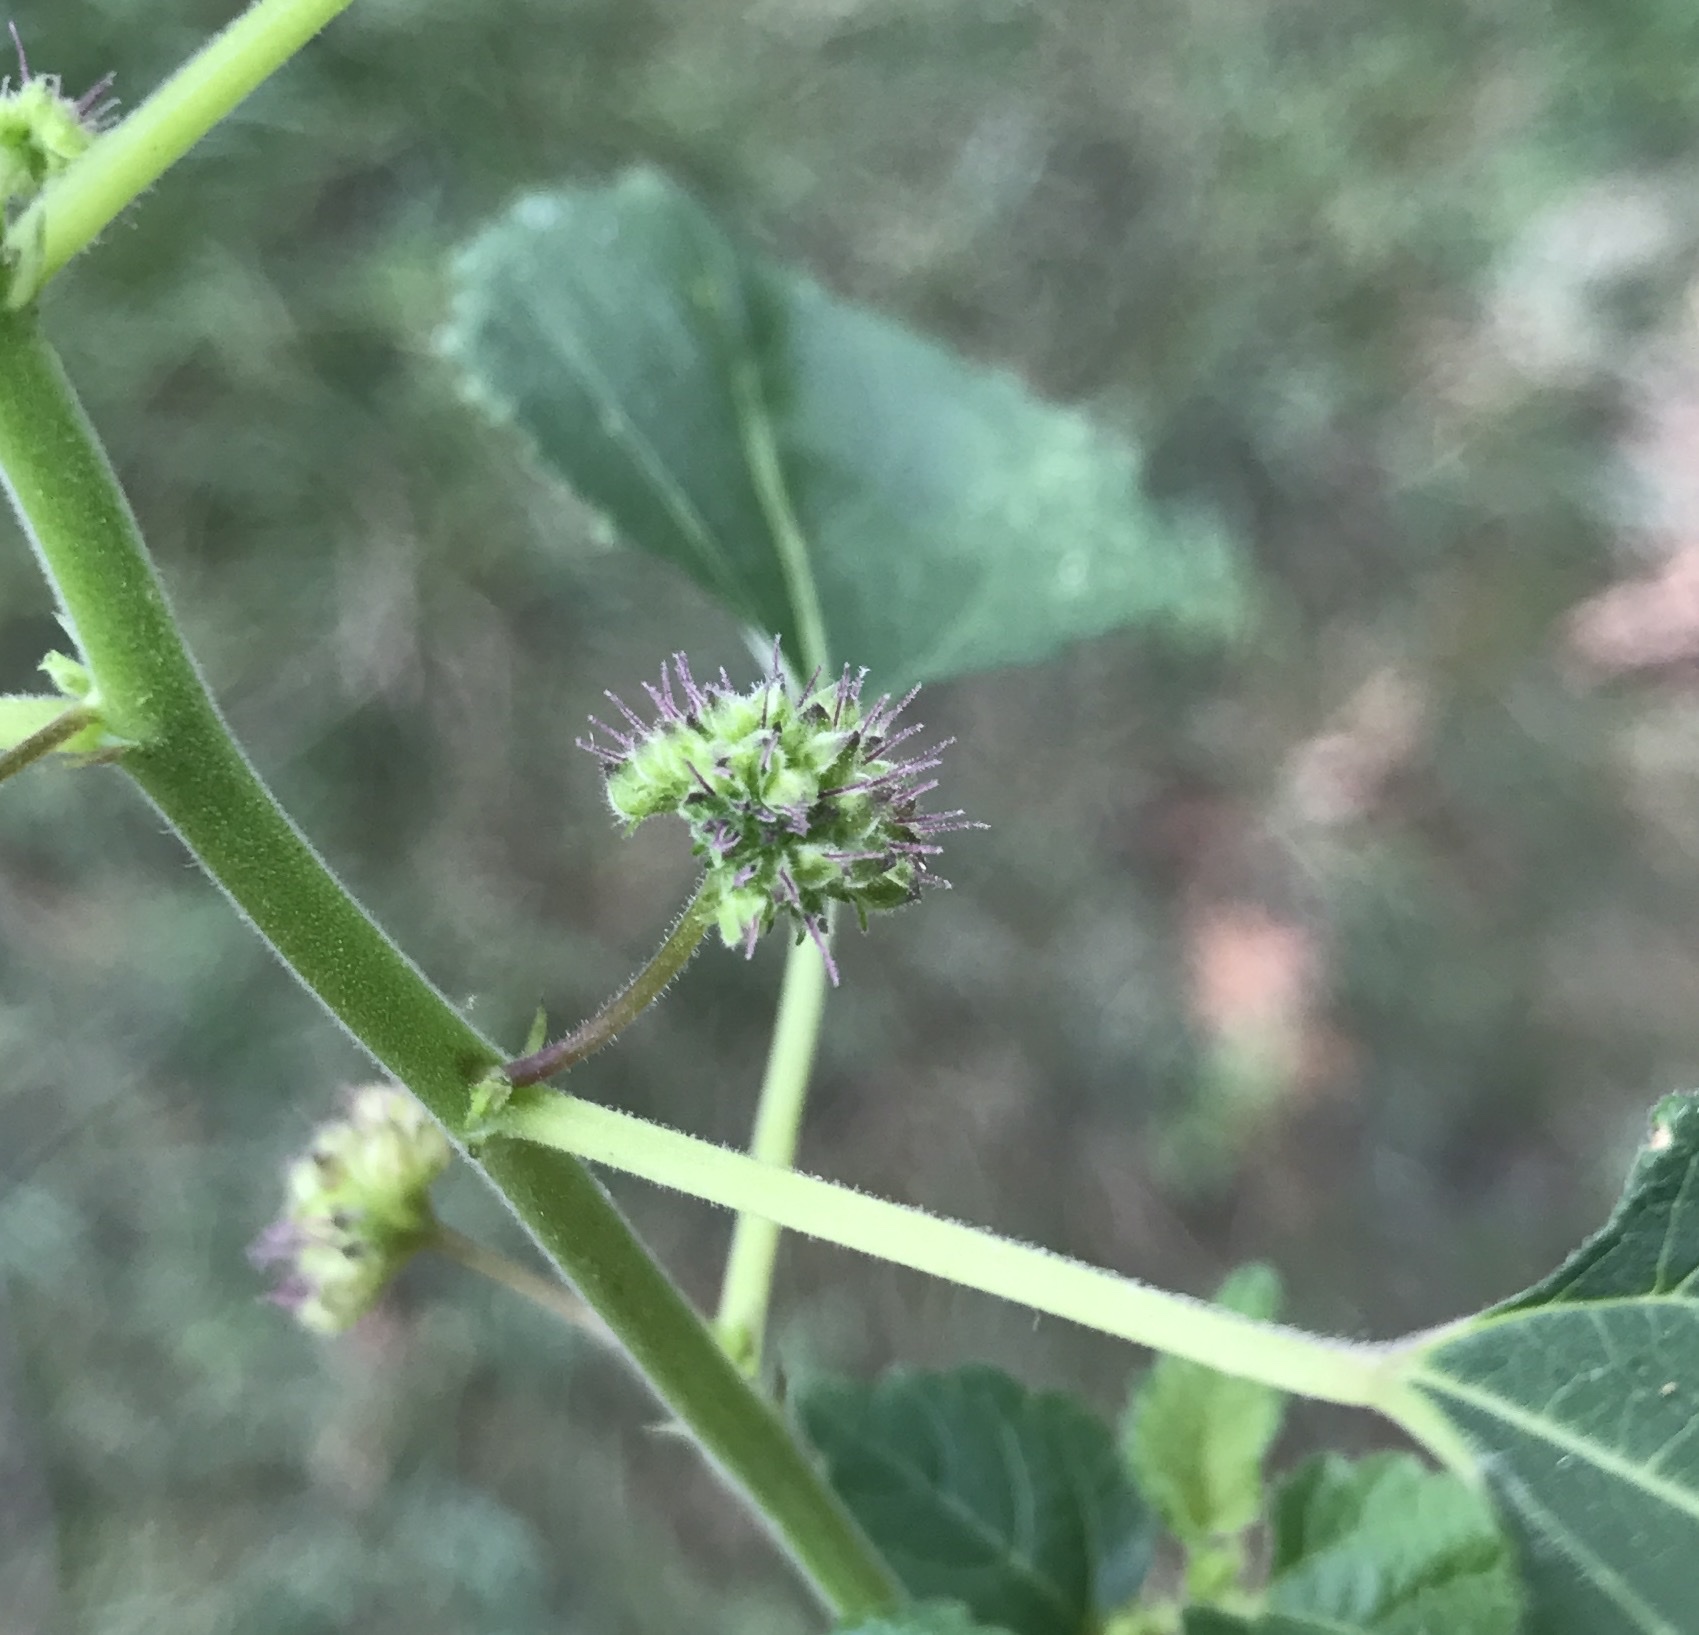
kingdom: Plantae
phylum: Tracheophyta
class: Magnoliopsida
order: Rosales
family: Moraceae
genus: Fatoua
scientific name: Fatoua villosa
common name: Hairy crabweed
